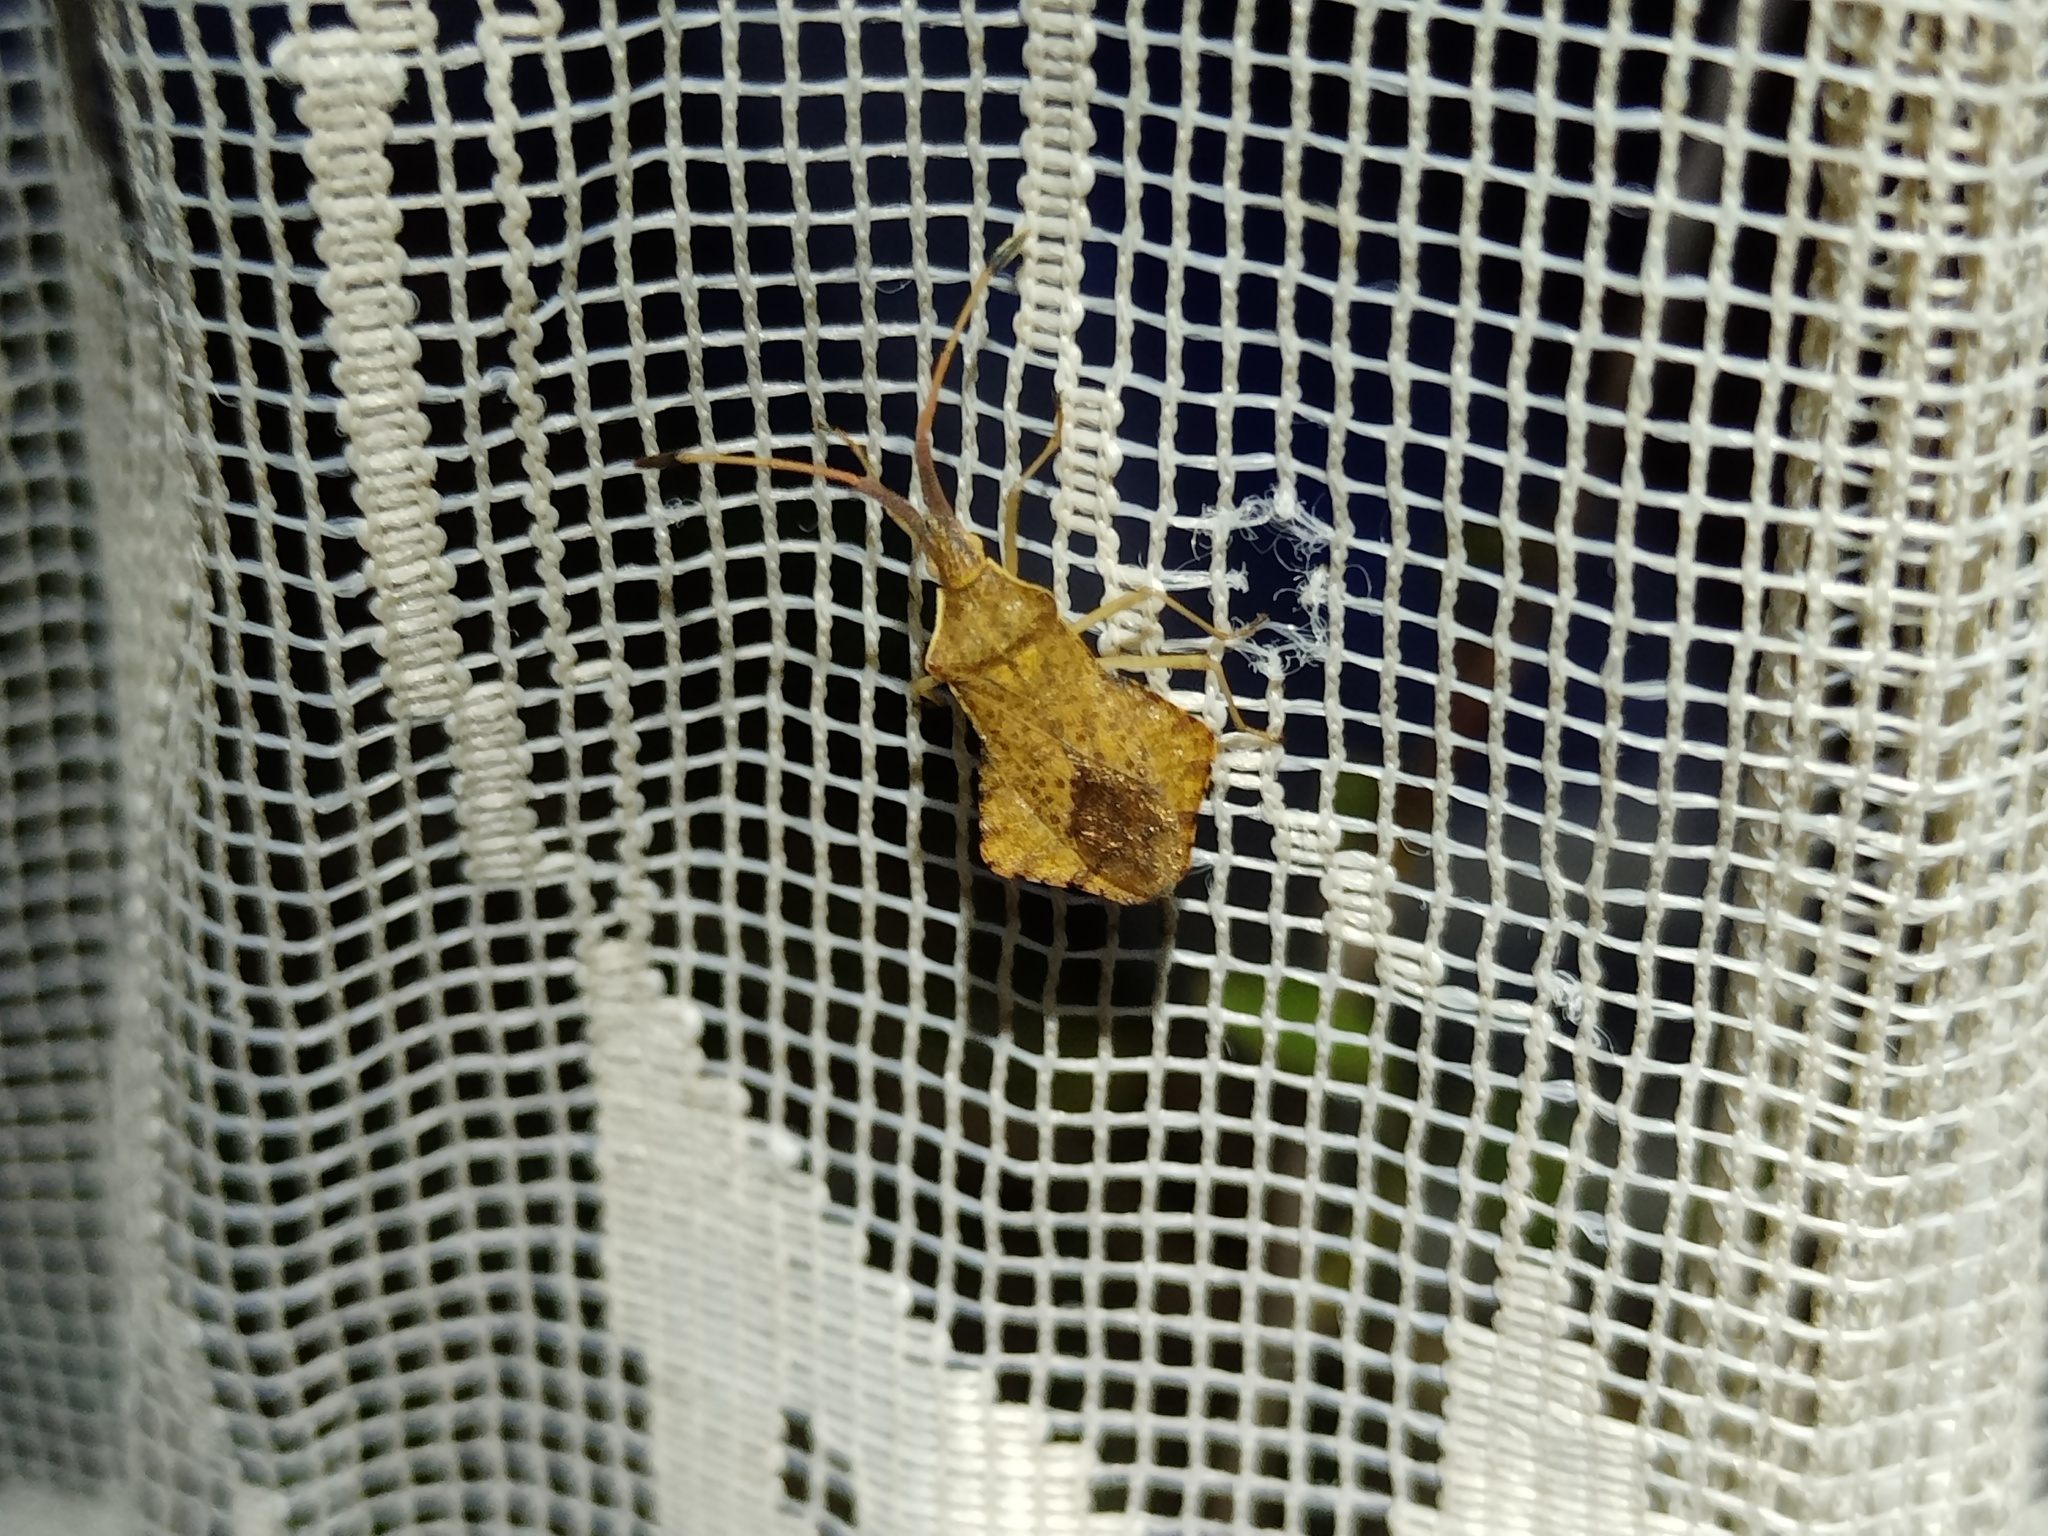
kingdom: Animalia
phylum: Arthropoda
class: Insecta
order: Hemiptera
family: Coreidae
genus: Syromastus
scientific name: Syromastus rhombeus
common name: Rhombic leatherbug
